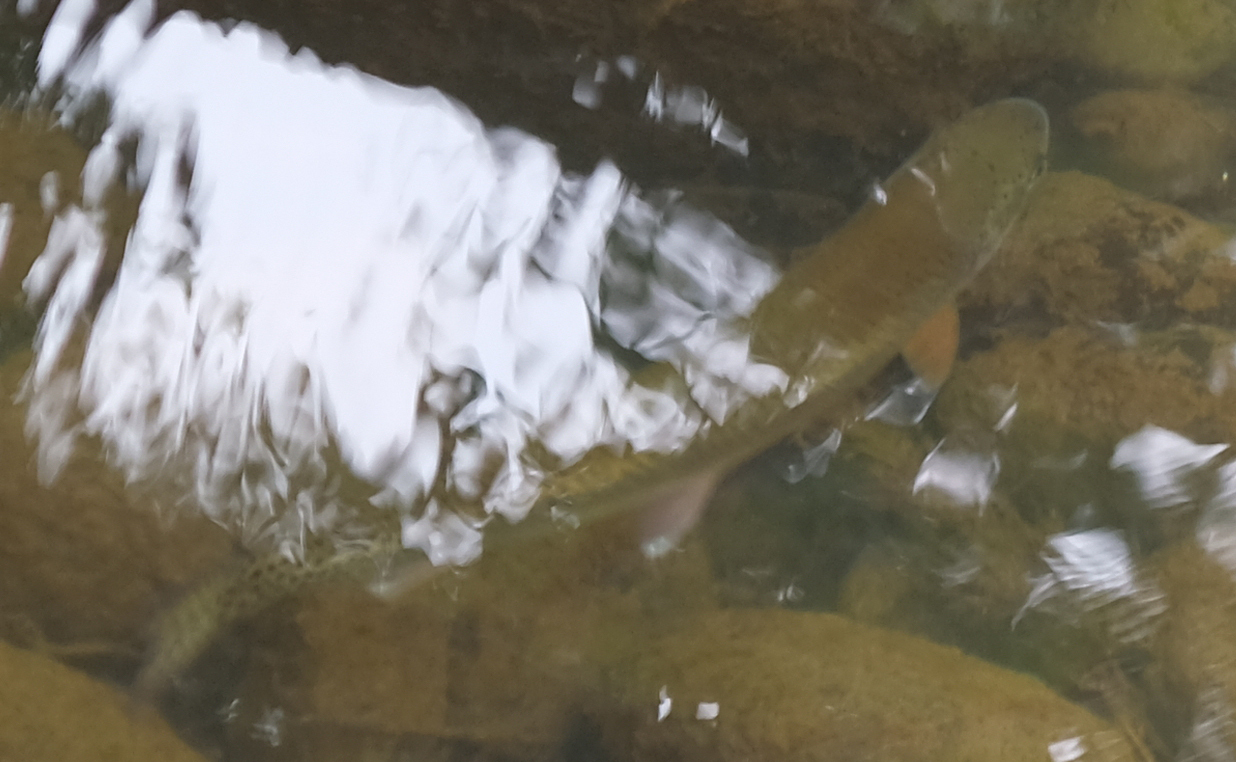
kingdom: Animalia
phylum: Chordata
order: Salmoniformes
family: Salmonidae
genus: Oncorhynchus
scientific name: Oncorhynchus mykiss
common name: Rainbow trout
